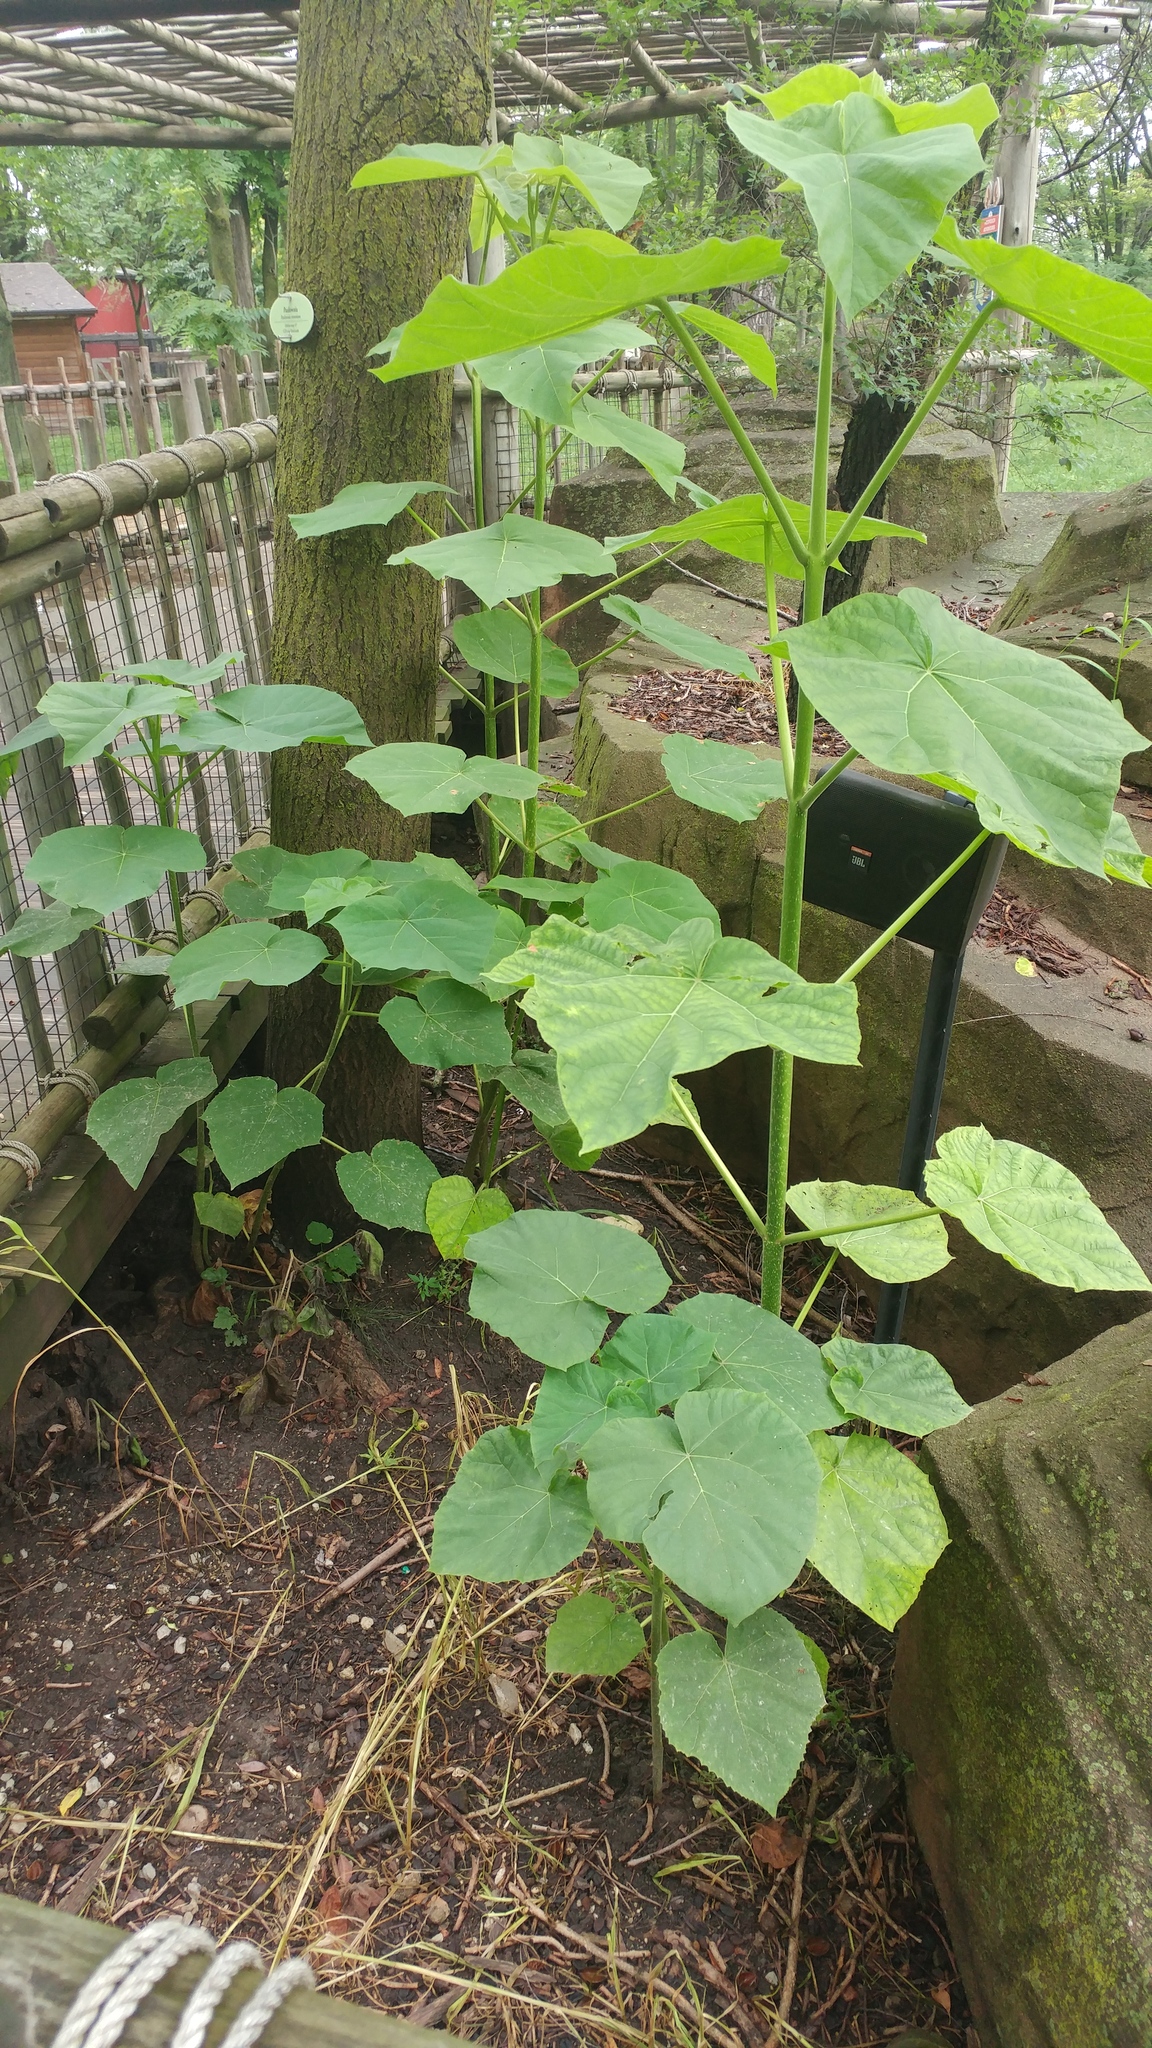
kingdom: Plantae
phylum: Tracheophyta
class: Magnoliopsida
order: Lamiales
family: Paulowniaceae
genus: Paulownia
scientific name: Paulownia tomentosa
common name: Foxglove-tree
